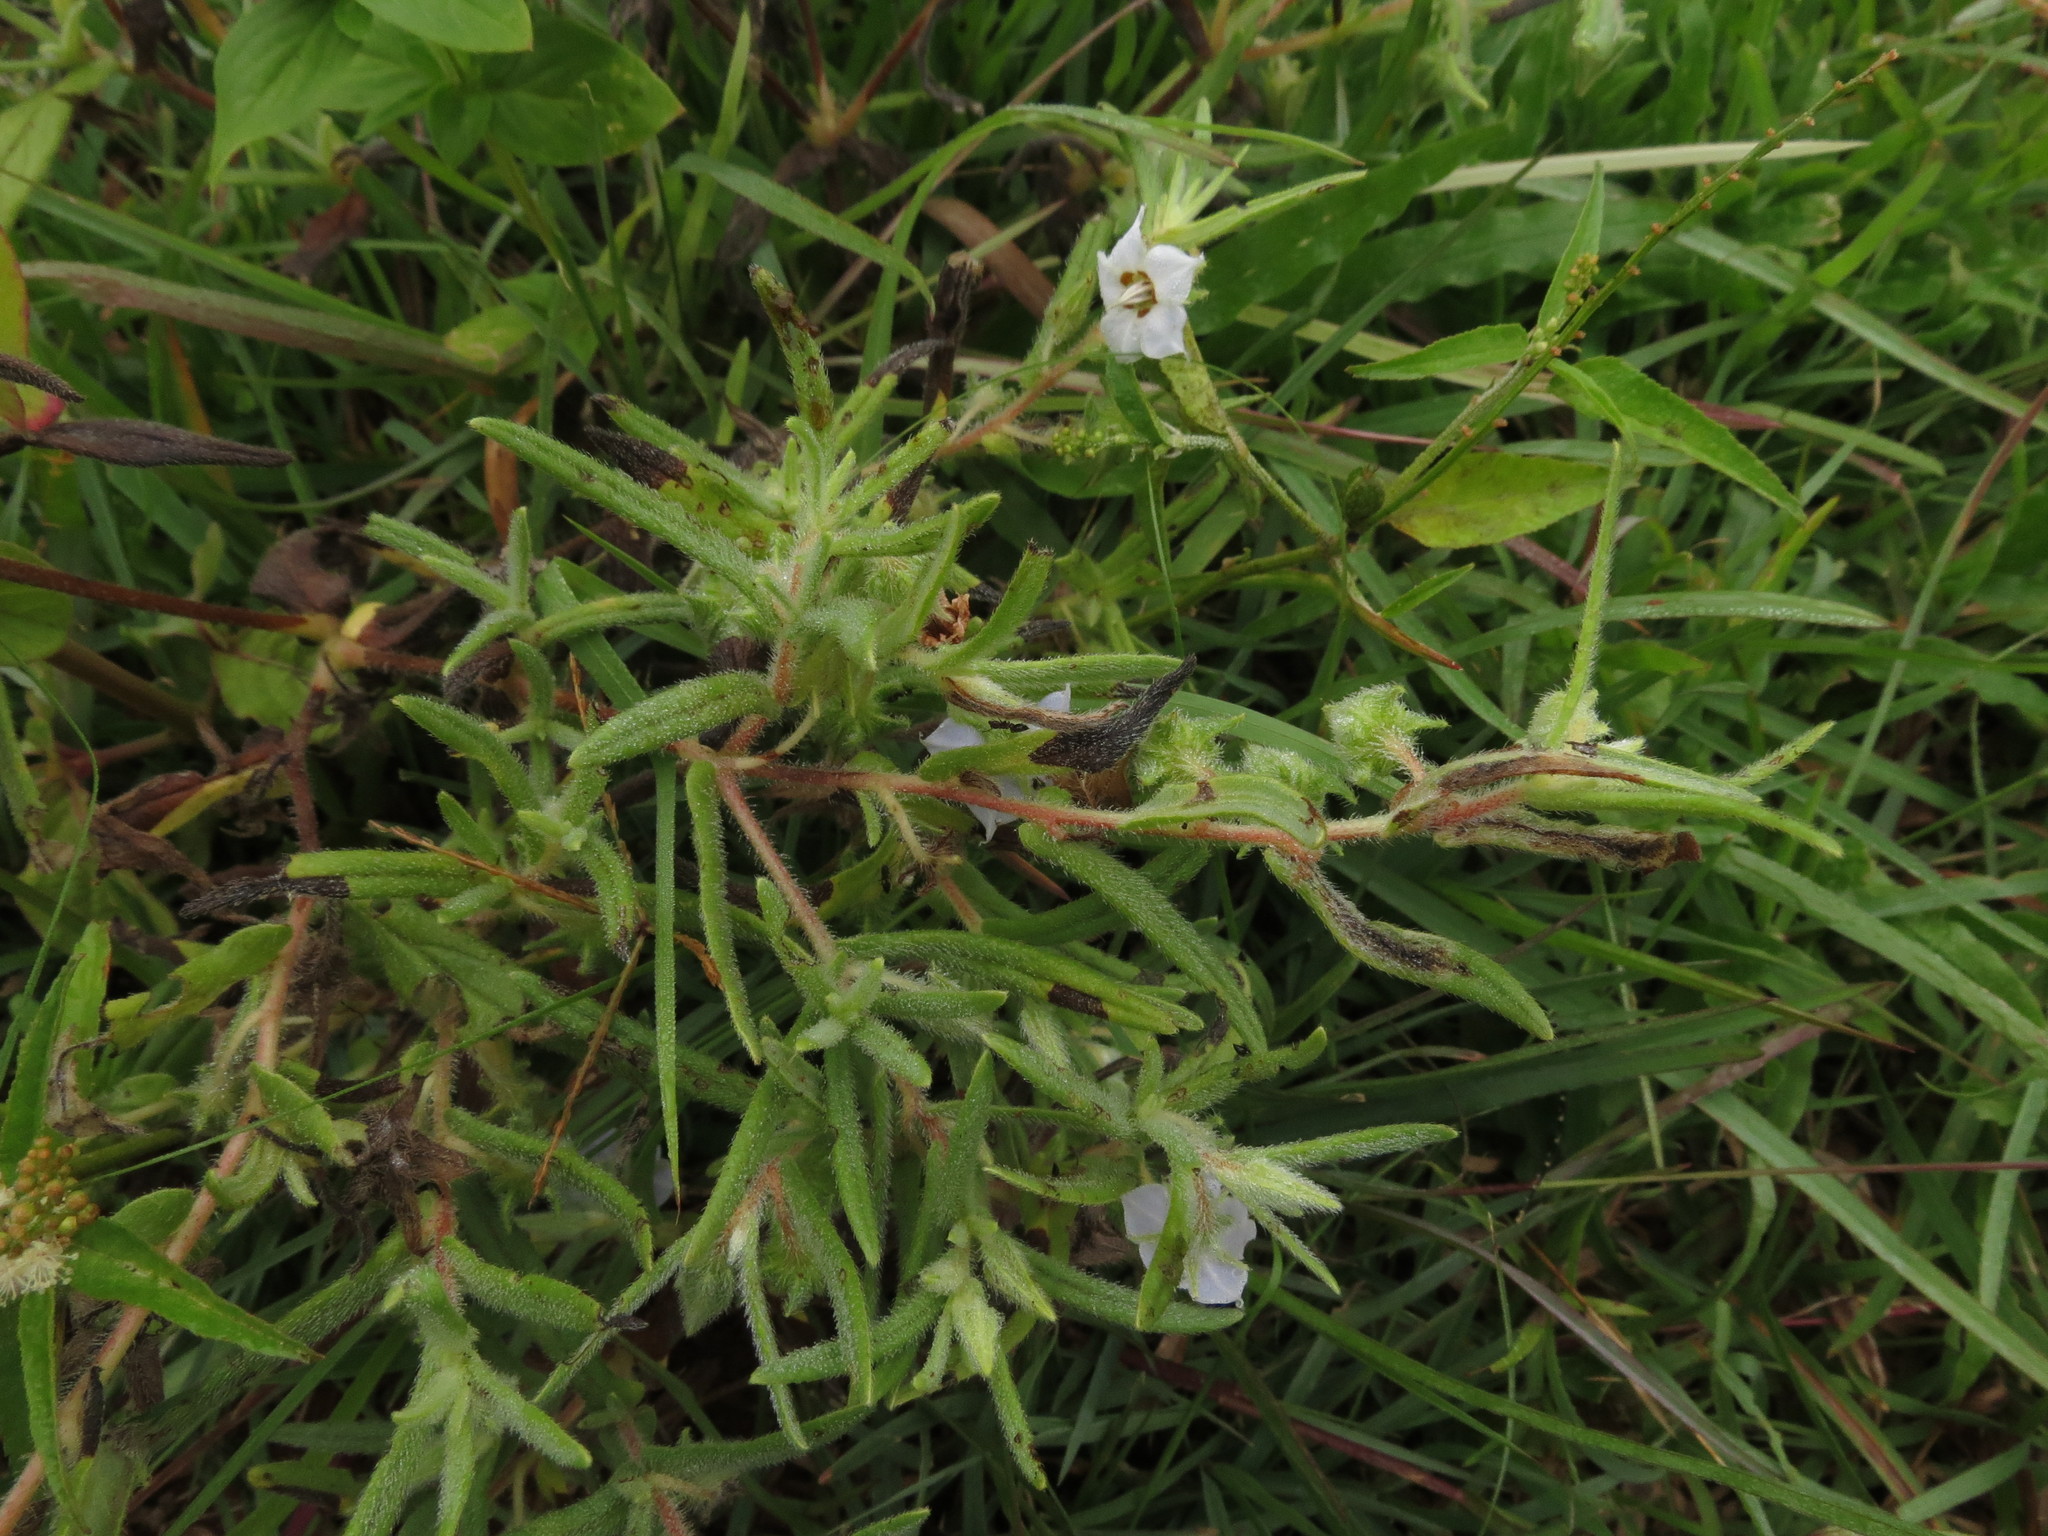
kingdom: Plantae
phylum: Tracheophyta
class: Magnoliopsida
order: Boraginales
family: Boraginaceae
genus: Trichodesma
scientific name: Trichodesma indicum
